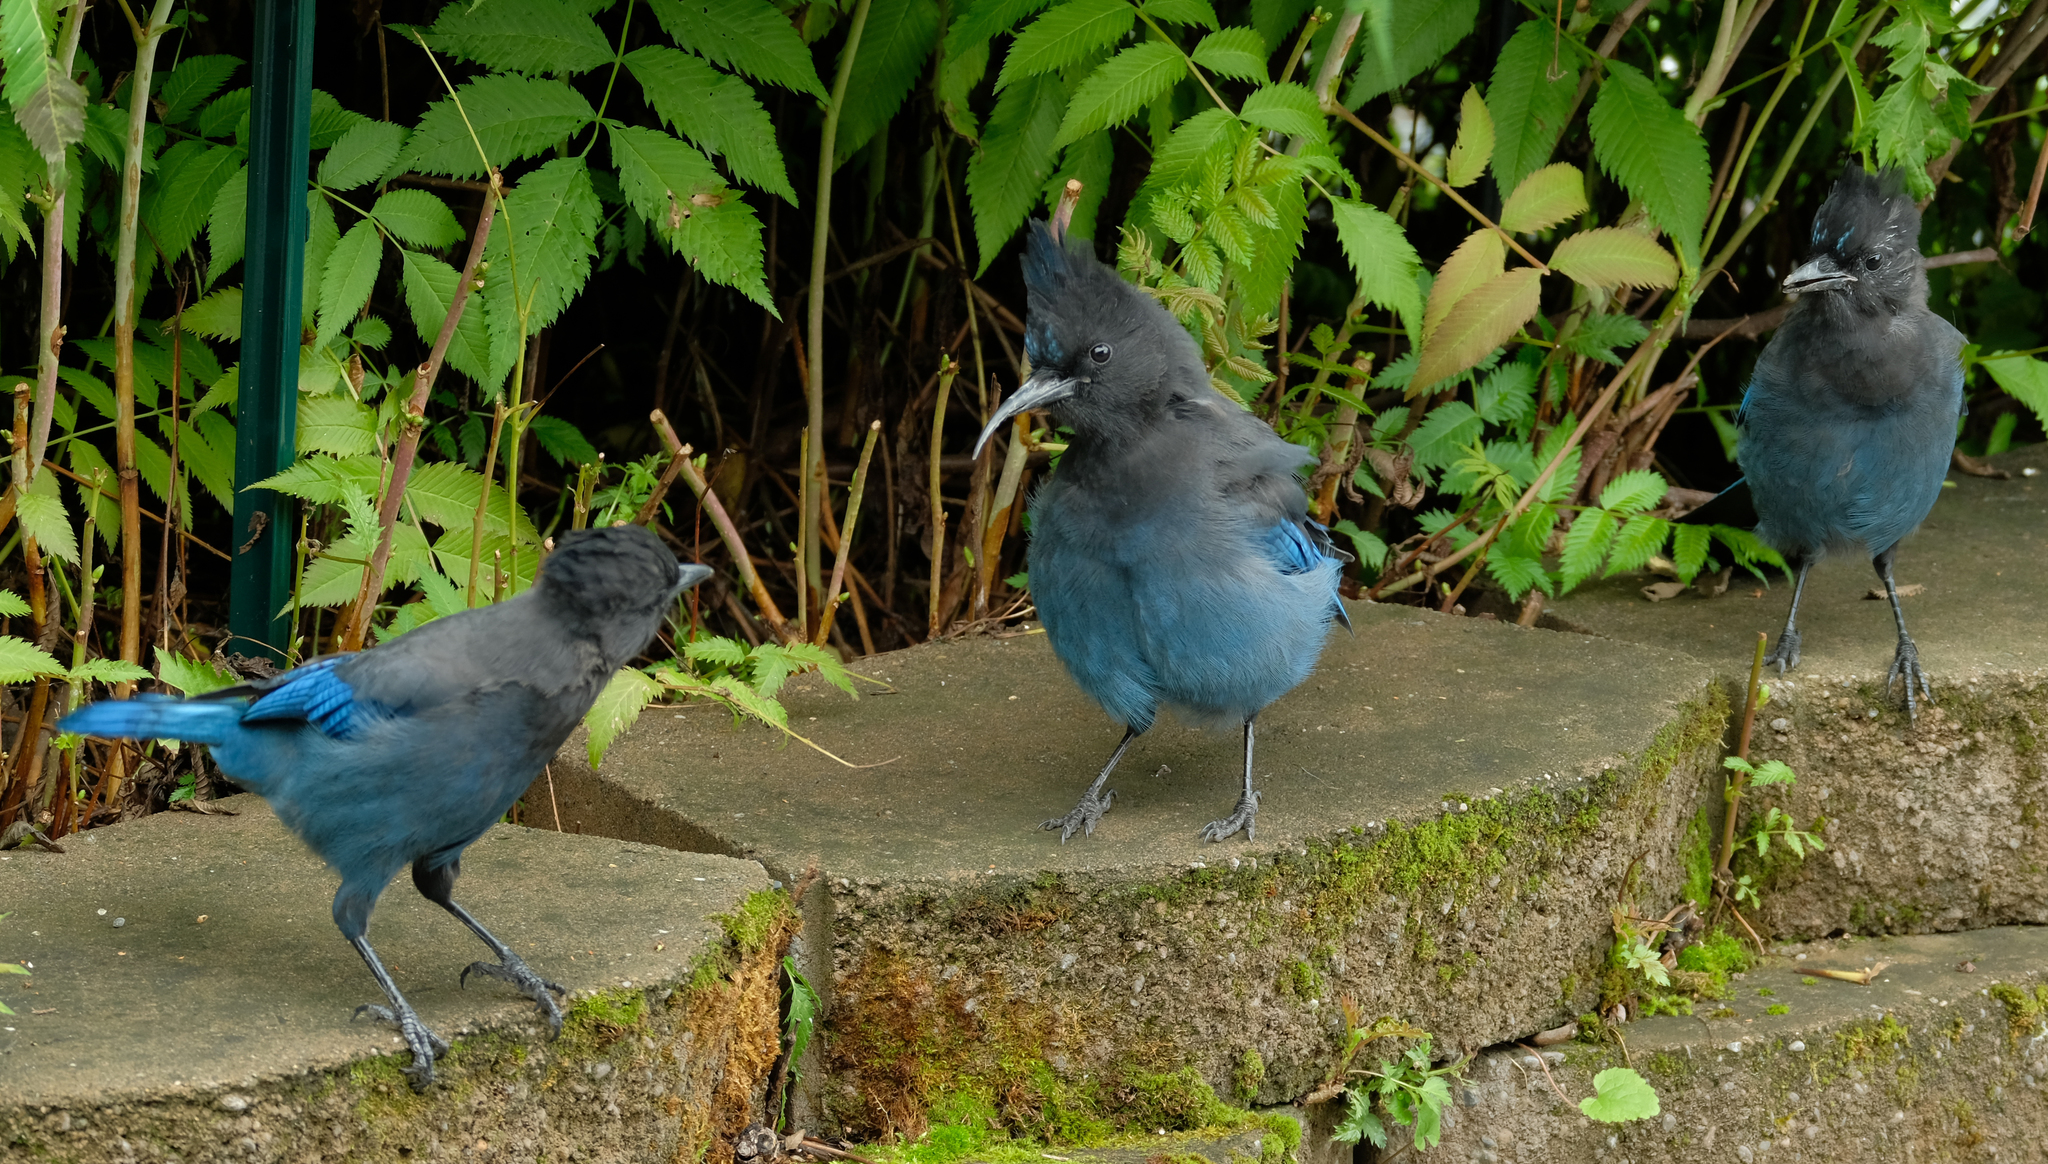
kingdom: Animalia
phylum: Chordata
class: Aves
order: Passeriformes
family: Corvidae
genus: Cyanocitta
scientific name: Cyanocitta stelleri
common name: Steller's jay
